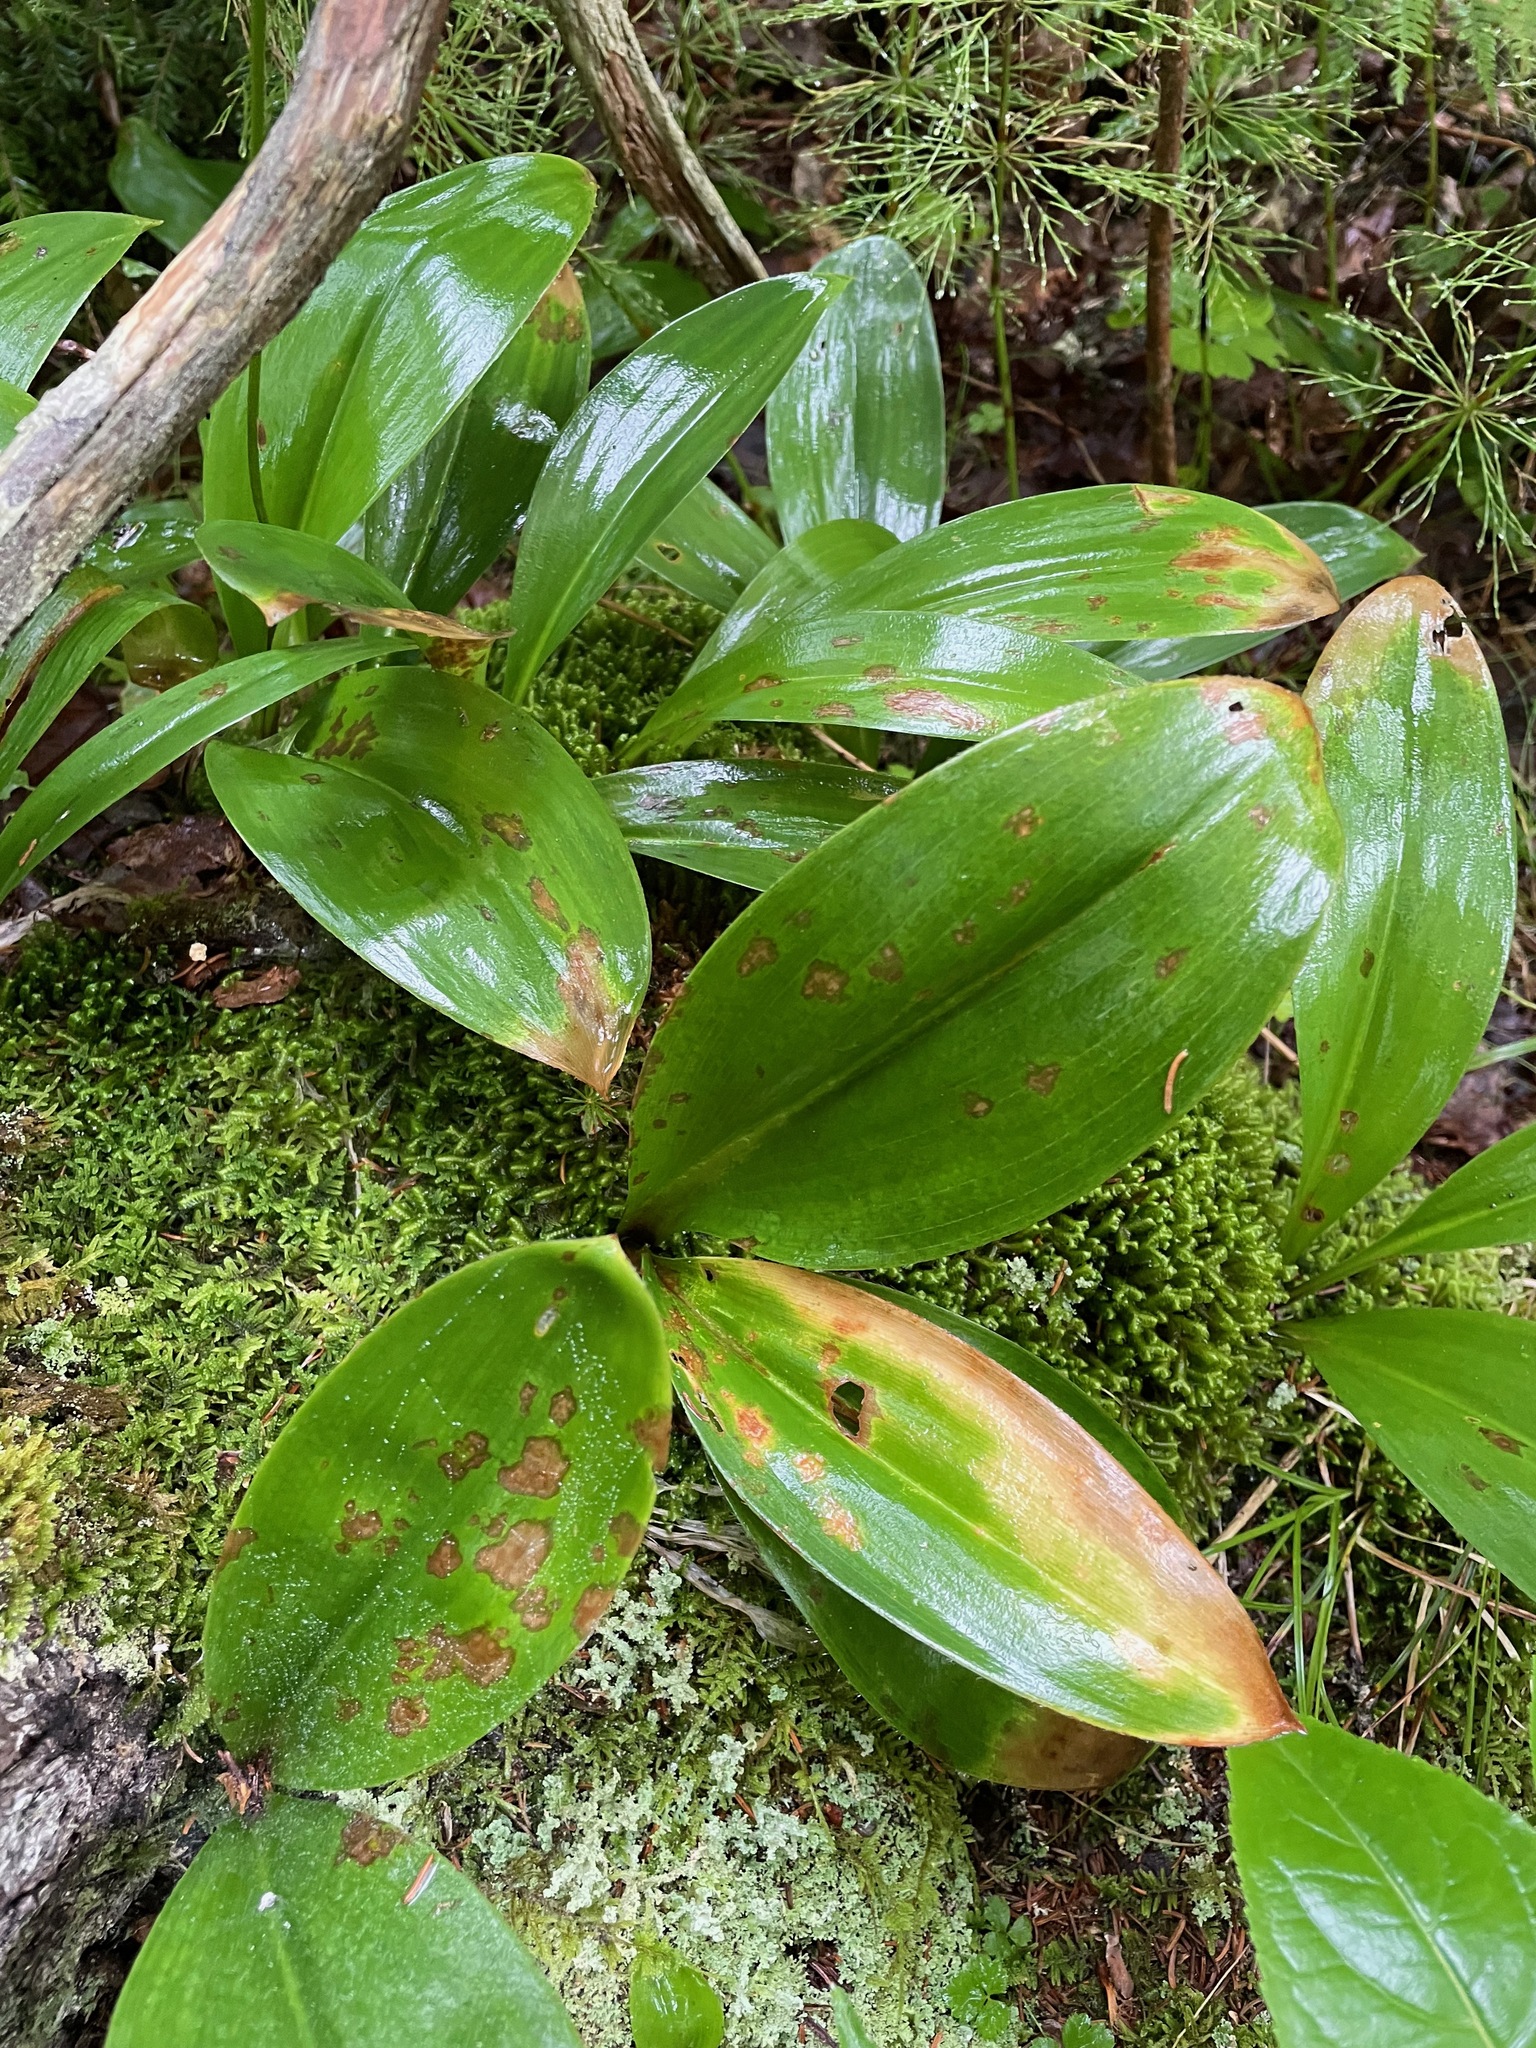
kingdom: Plantae
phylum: Tracheophyta
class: Liliopsida
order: Liliales
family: Liliaceae
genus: Clintonia
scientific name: Clintonia borealis
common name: Yellow clintonia
